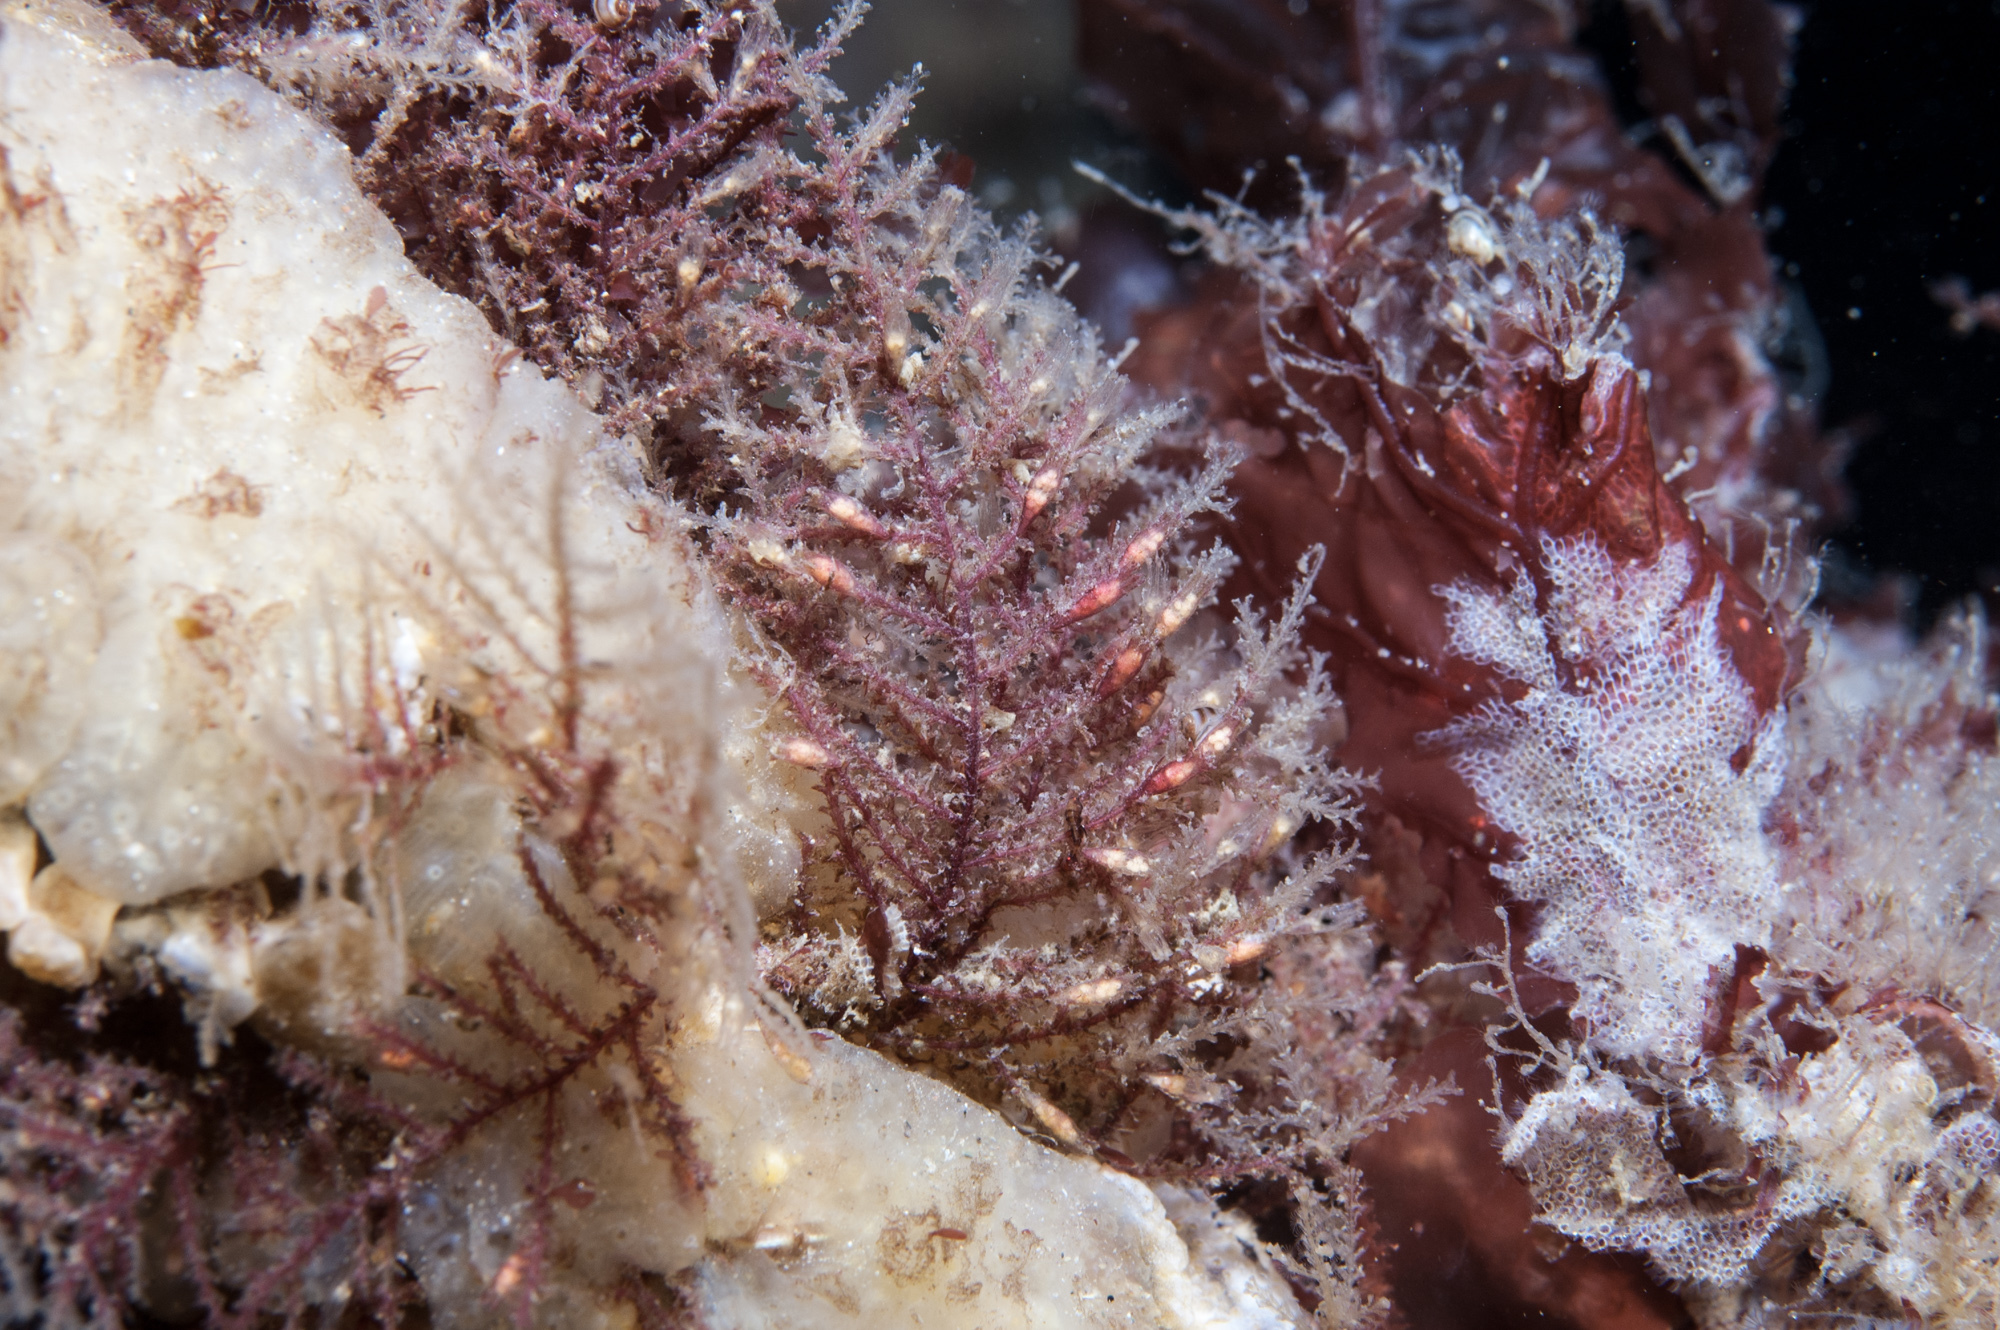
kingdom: Animalia
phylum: Cnidaria
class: Hydrozoa
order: Leptothecata
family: Sertulariidae
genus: Diphasia
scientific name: Diphasia rosacea
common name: Lily hydroid
